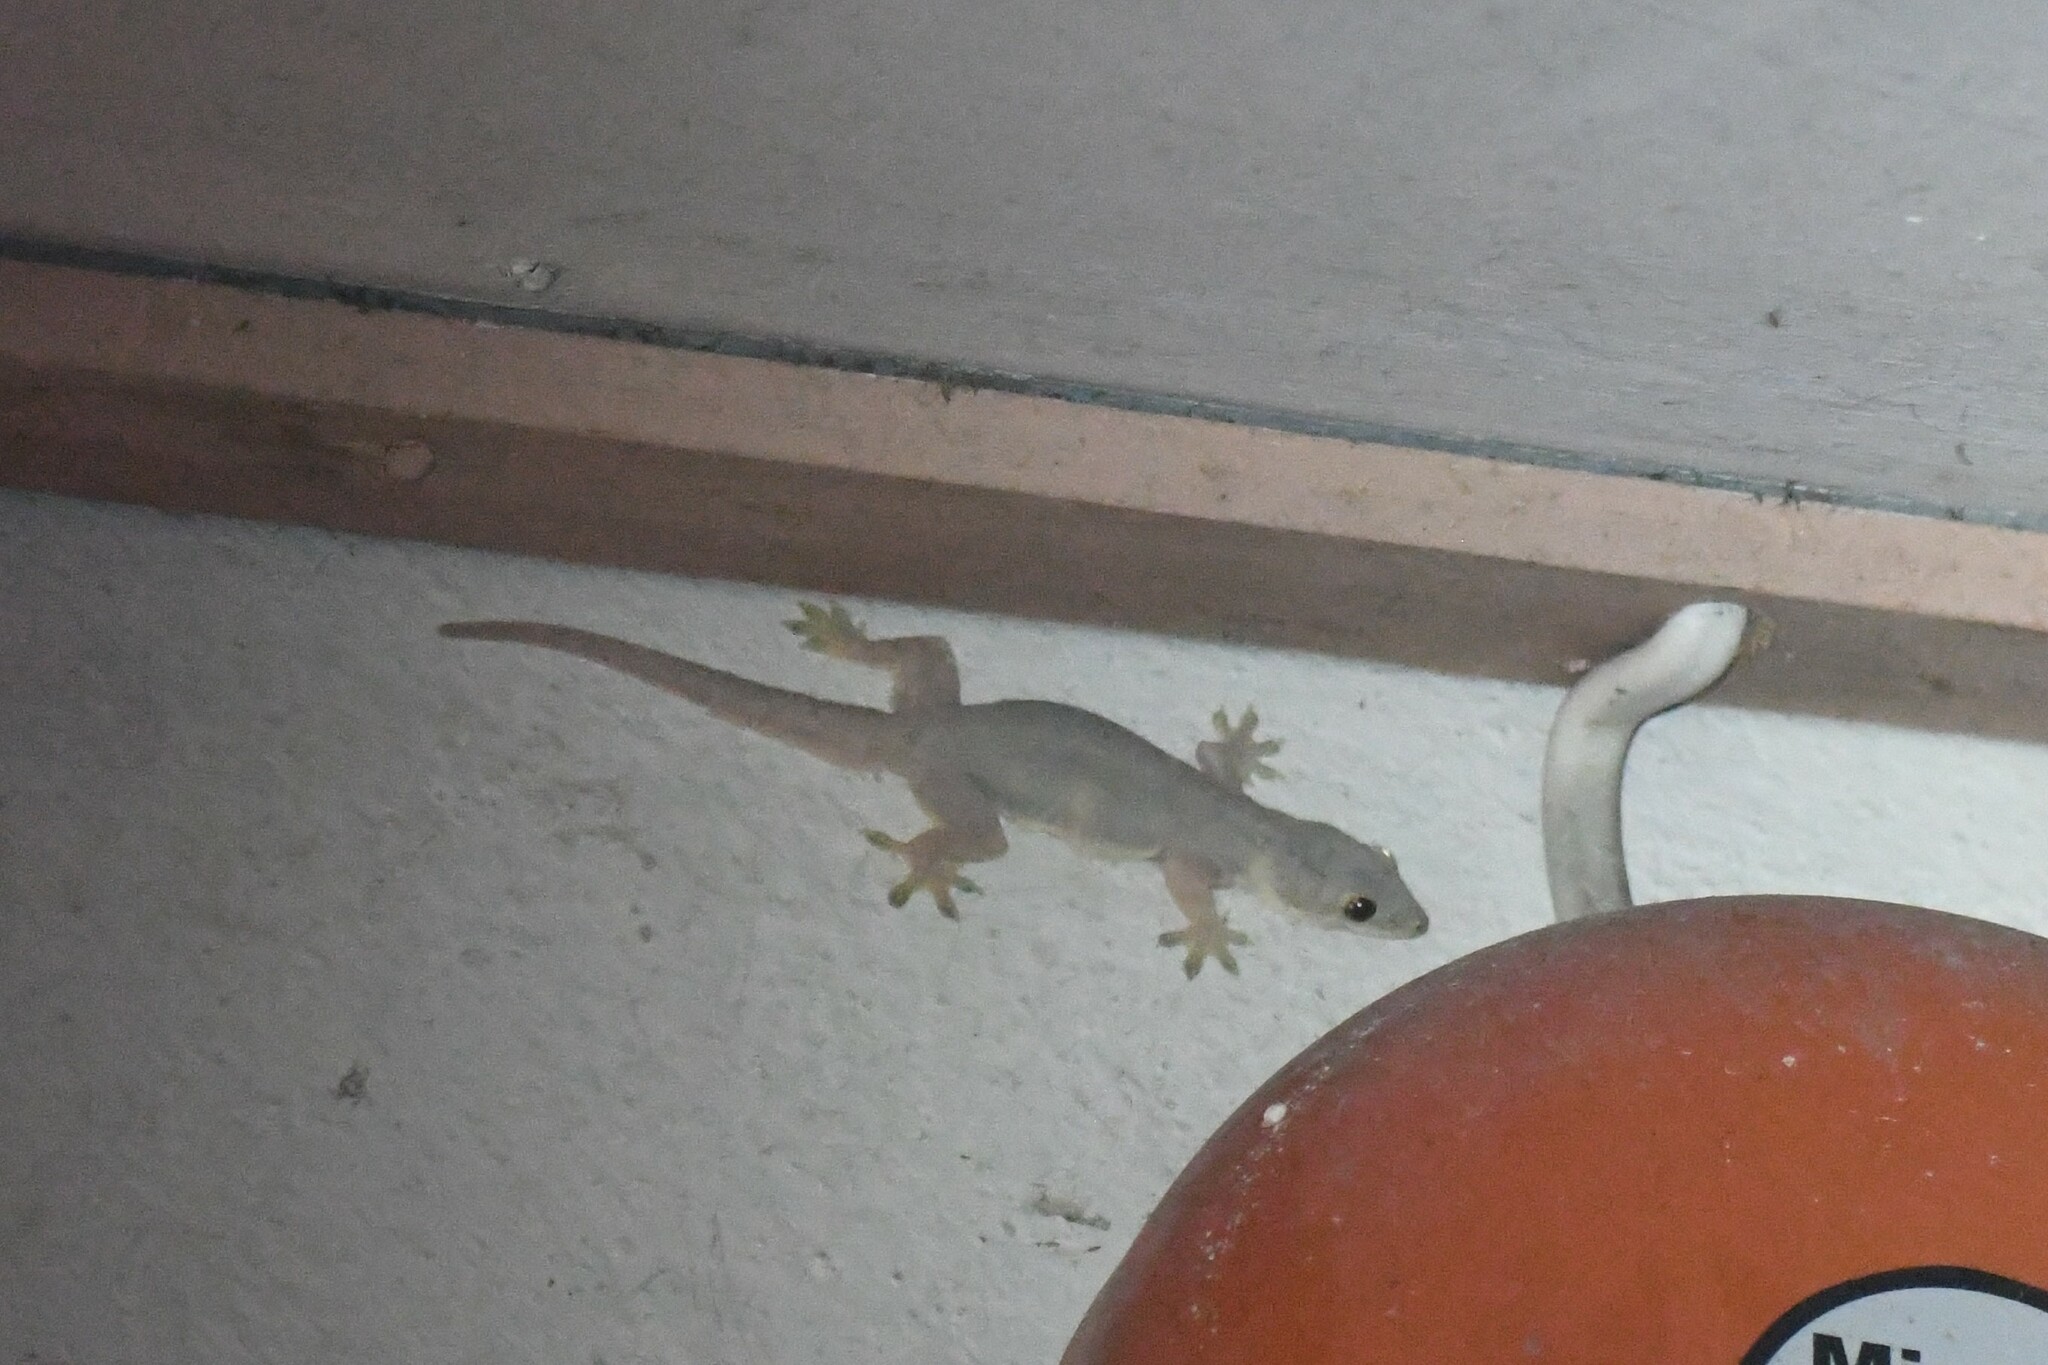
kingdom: Animalia
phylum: Chordata
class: Squamata
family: Gekkonidae
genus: Hemidactylus
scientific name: Hemidactylus platyurus
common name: Flat-tailed house gecko
